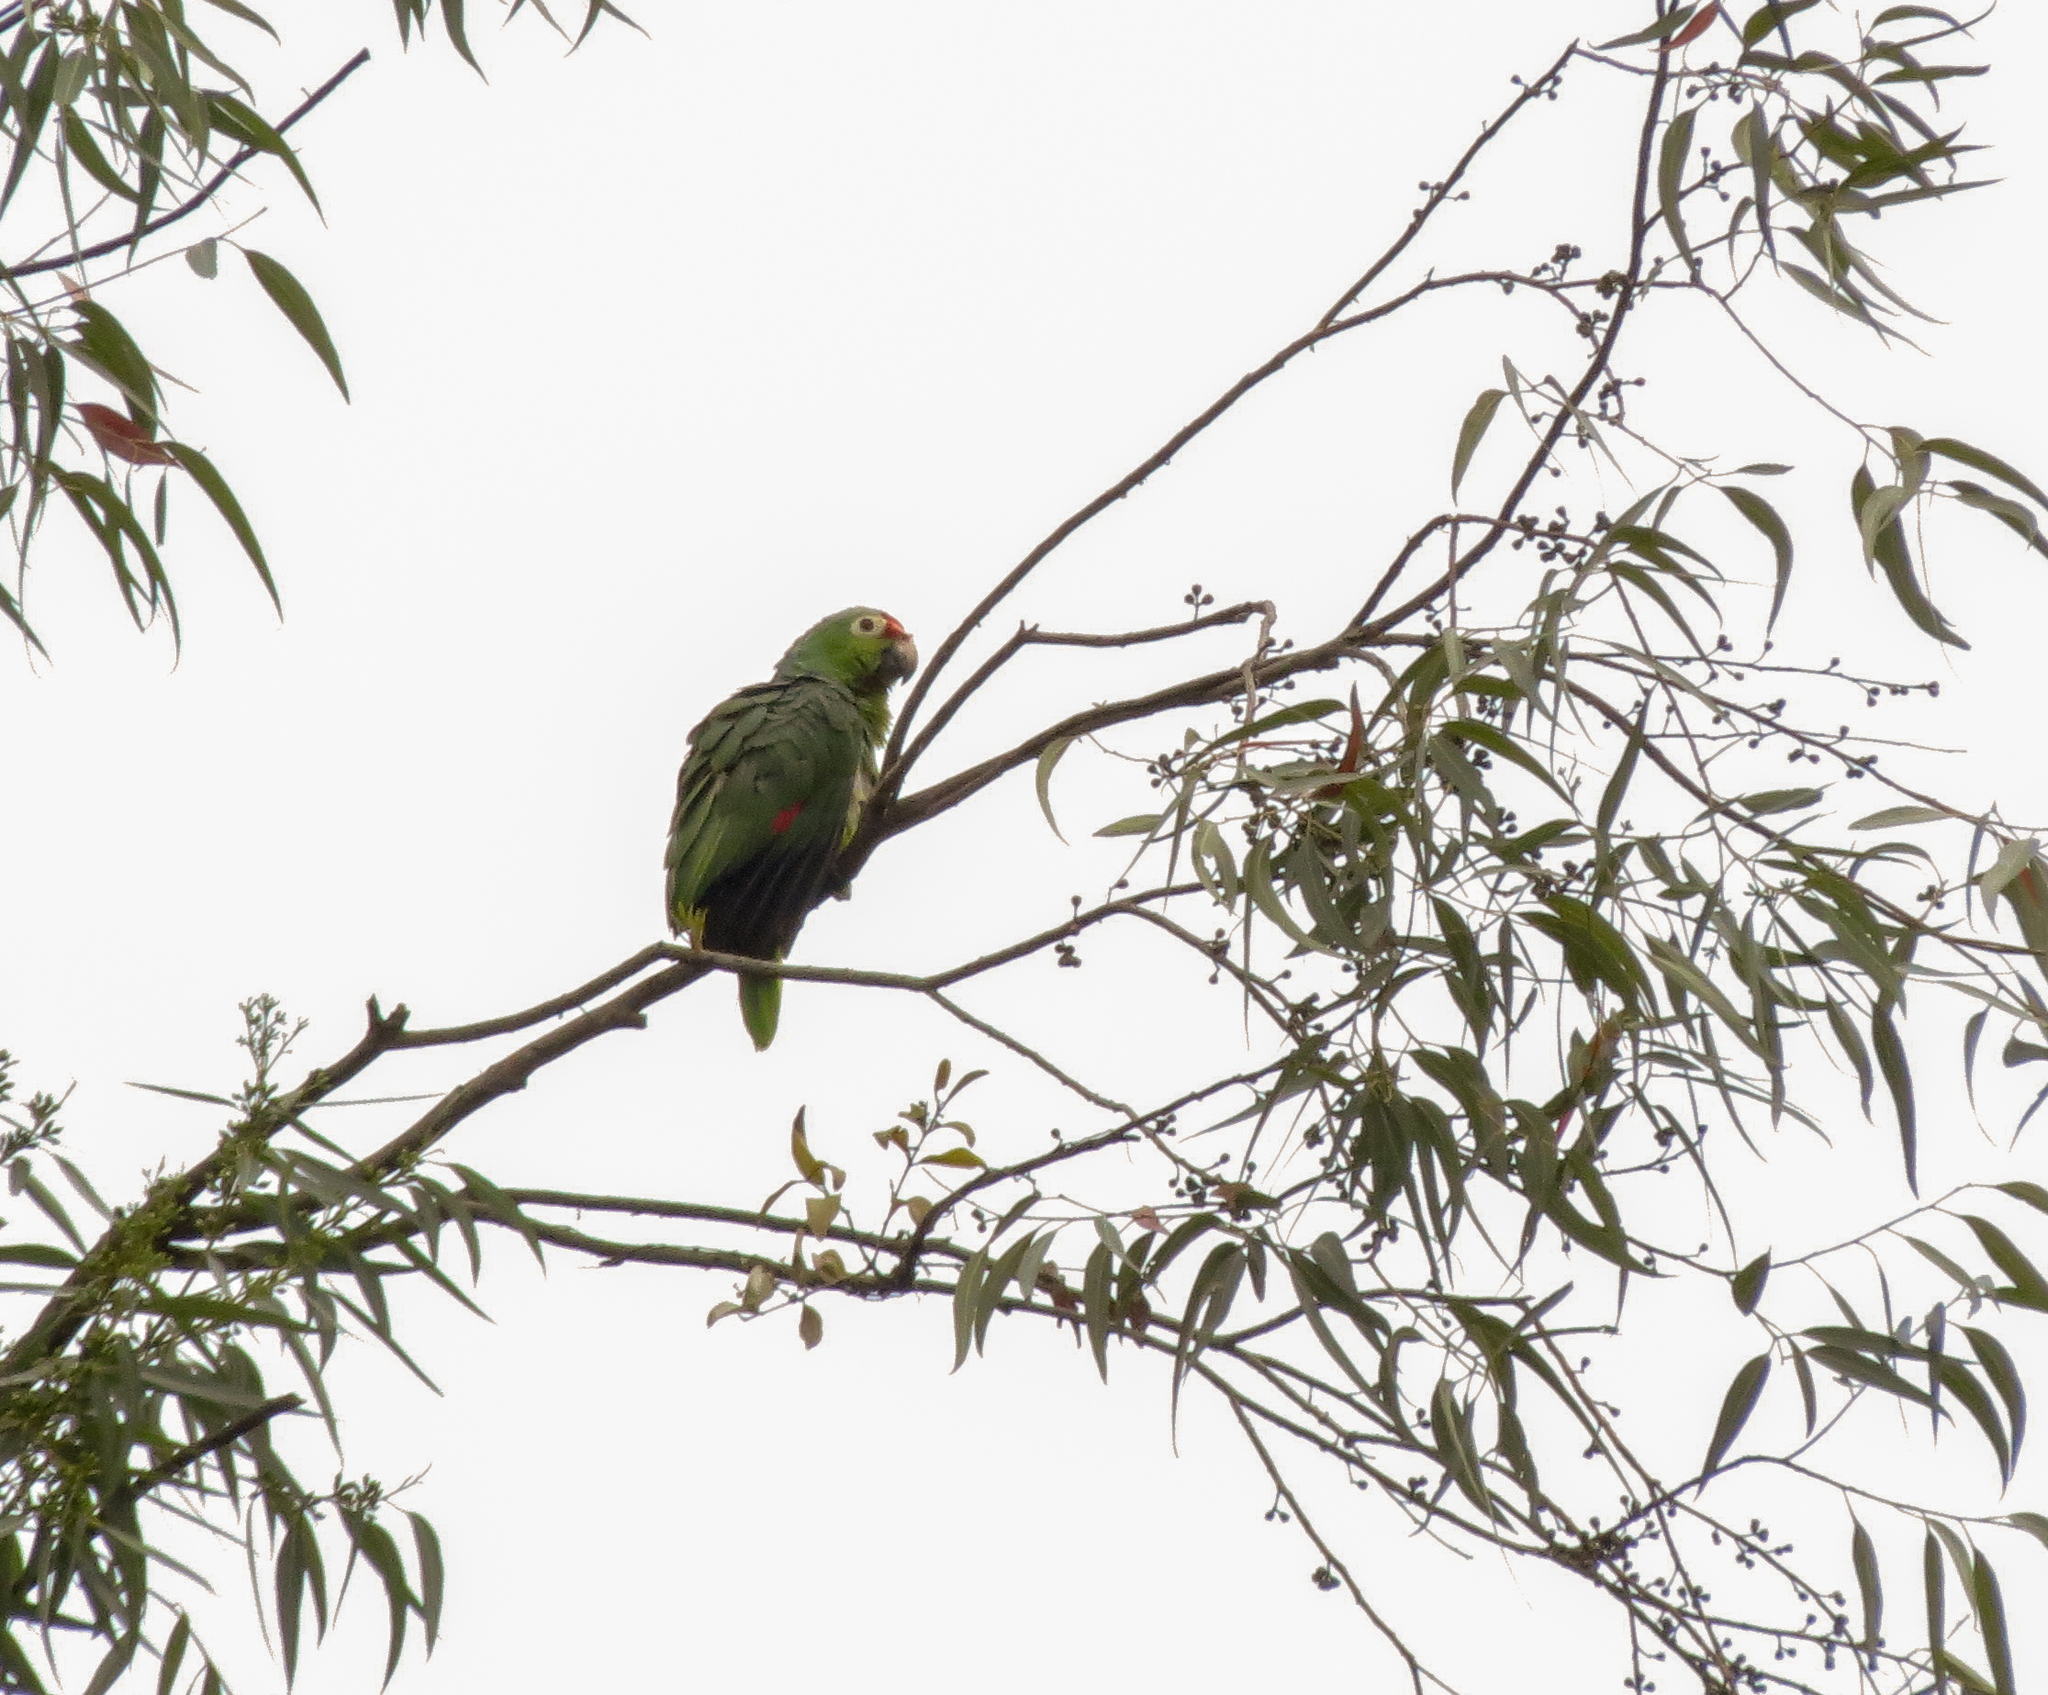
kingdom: Animalia
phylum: Chordata
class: Aves
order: Psittaciformes
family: Psittacidae
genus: Amazona
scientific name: Amazona autumnalis
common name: Red-lored amazon
